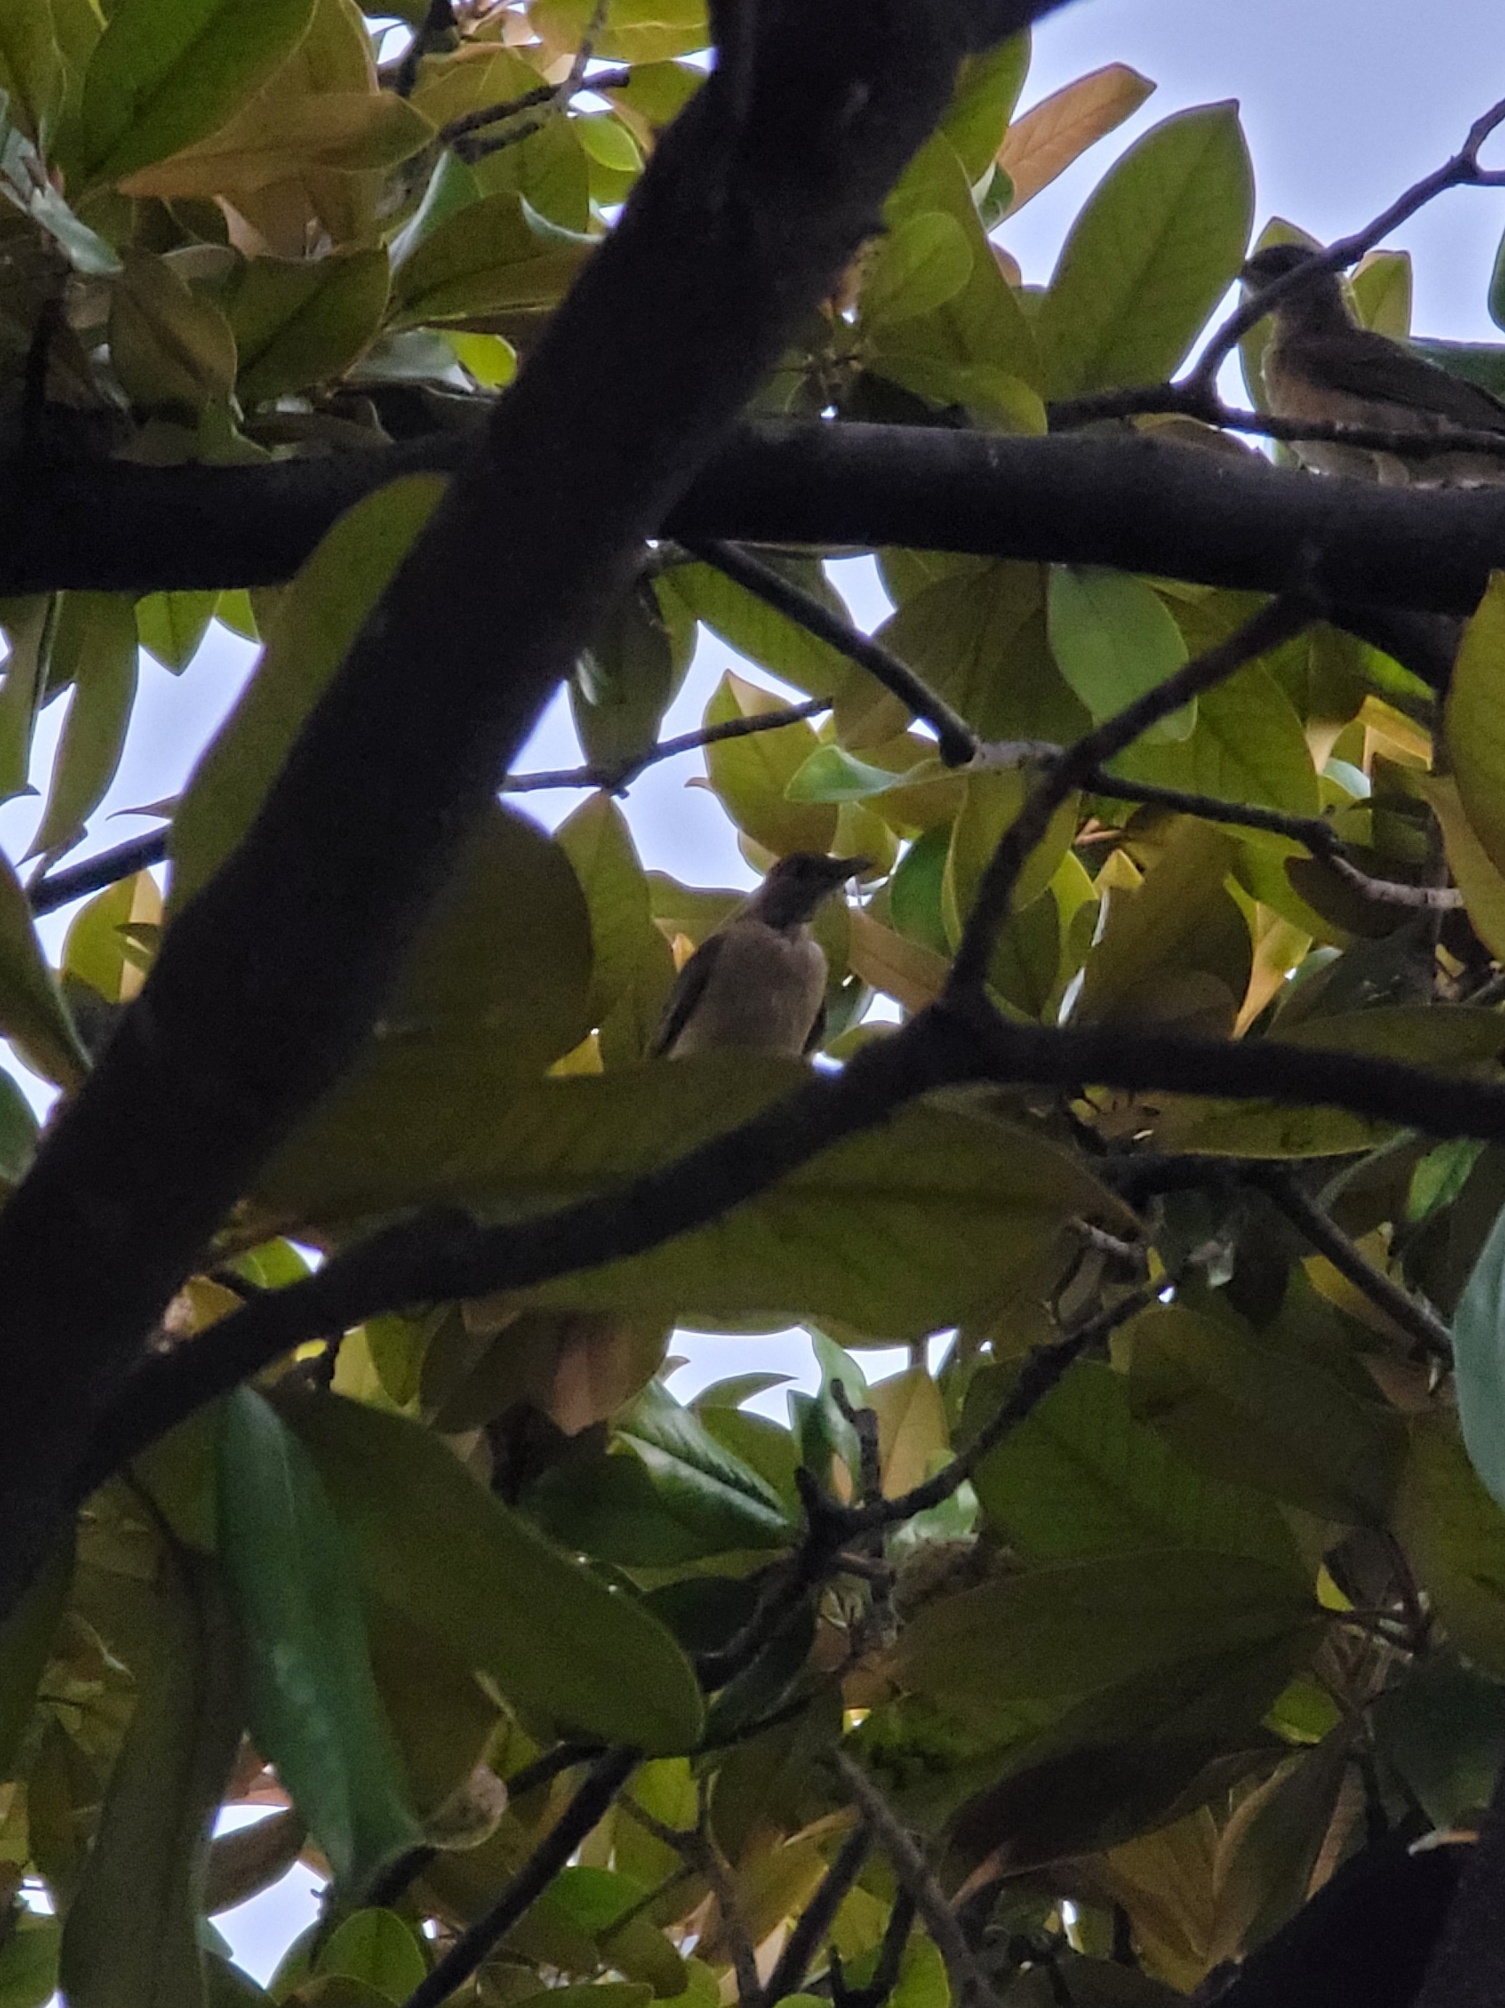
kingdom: Animalia
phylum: Chordata
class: Aves
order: Passeriformes
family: Turdidae
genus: Turdus
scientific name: Turdus grayi
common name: Clay-colored thrush
